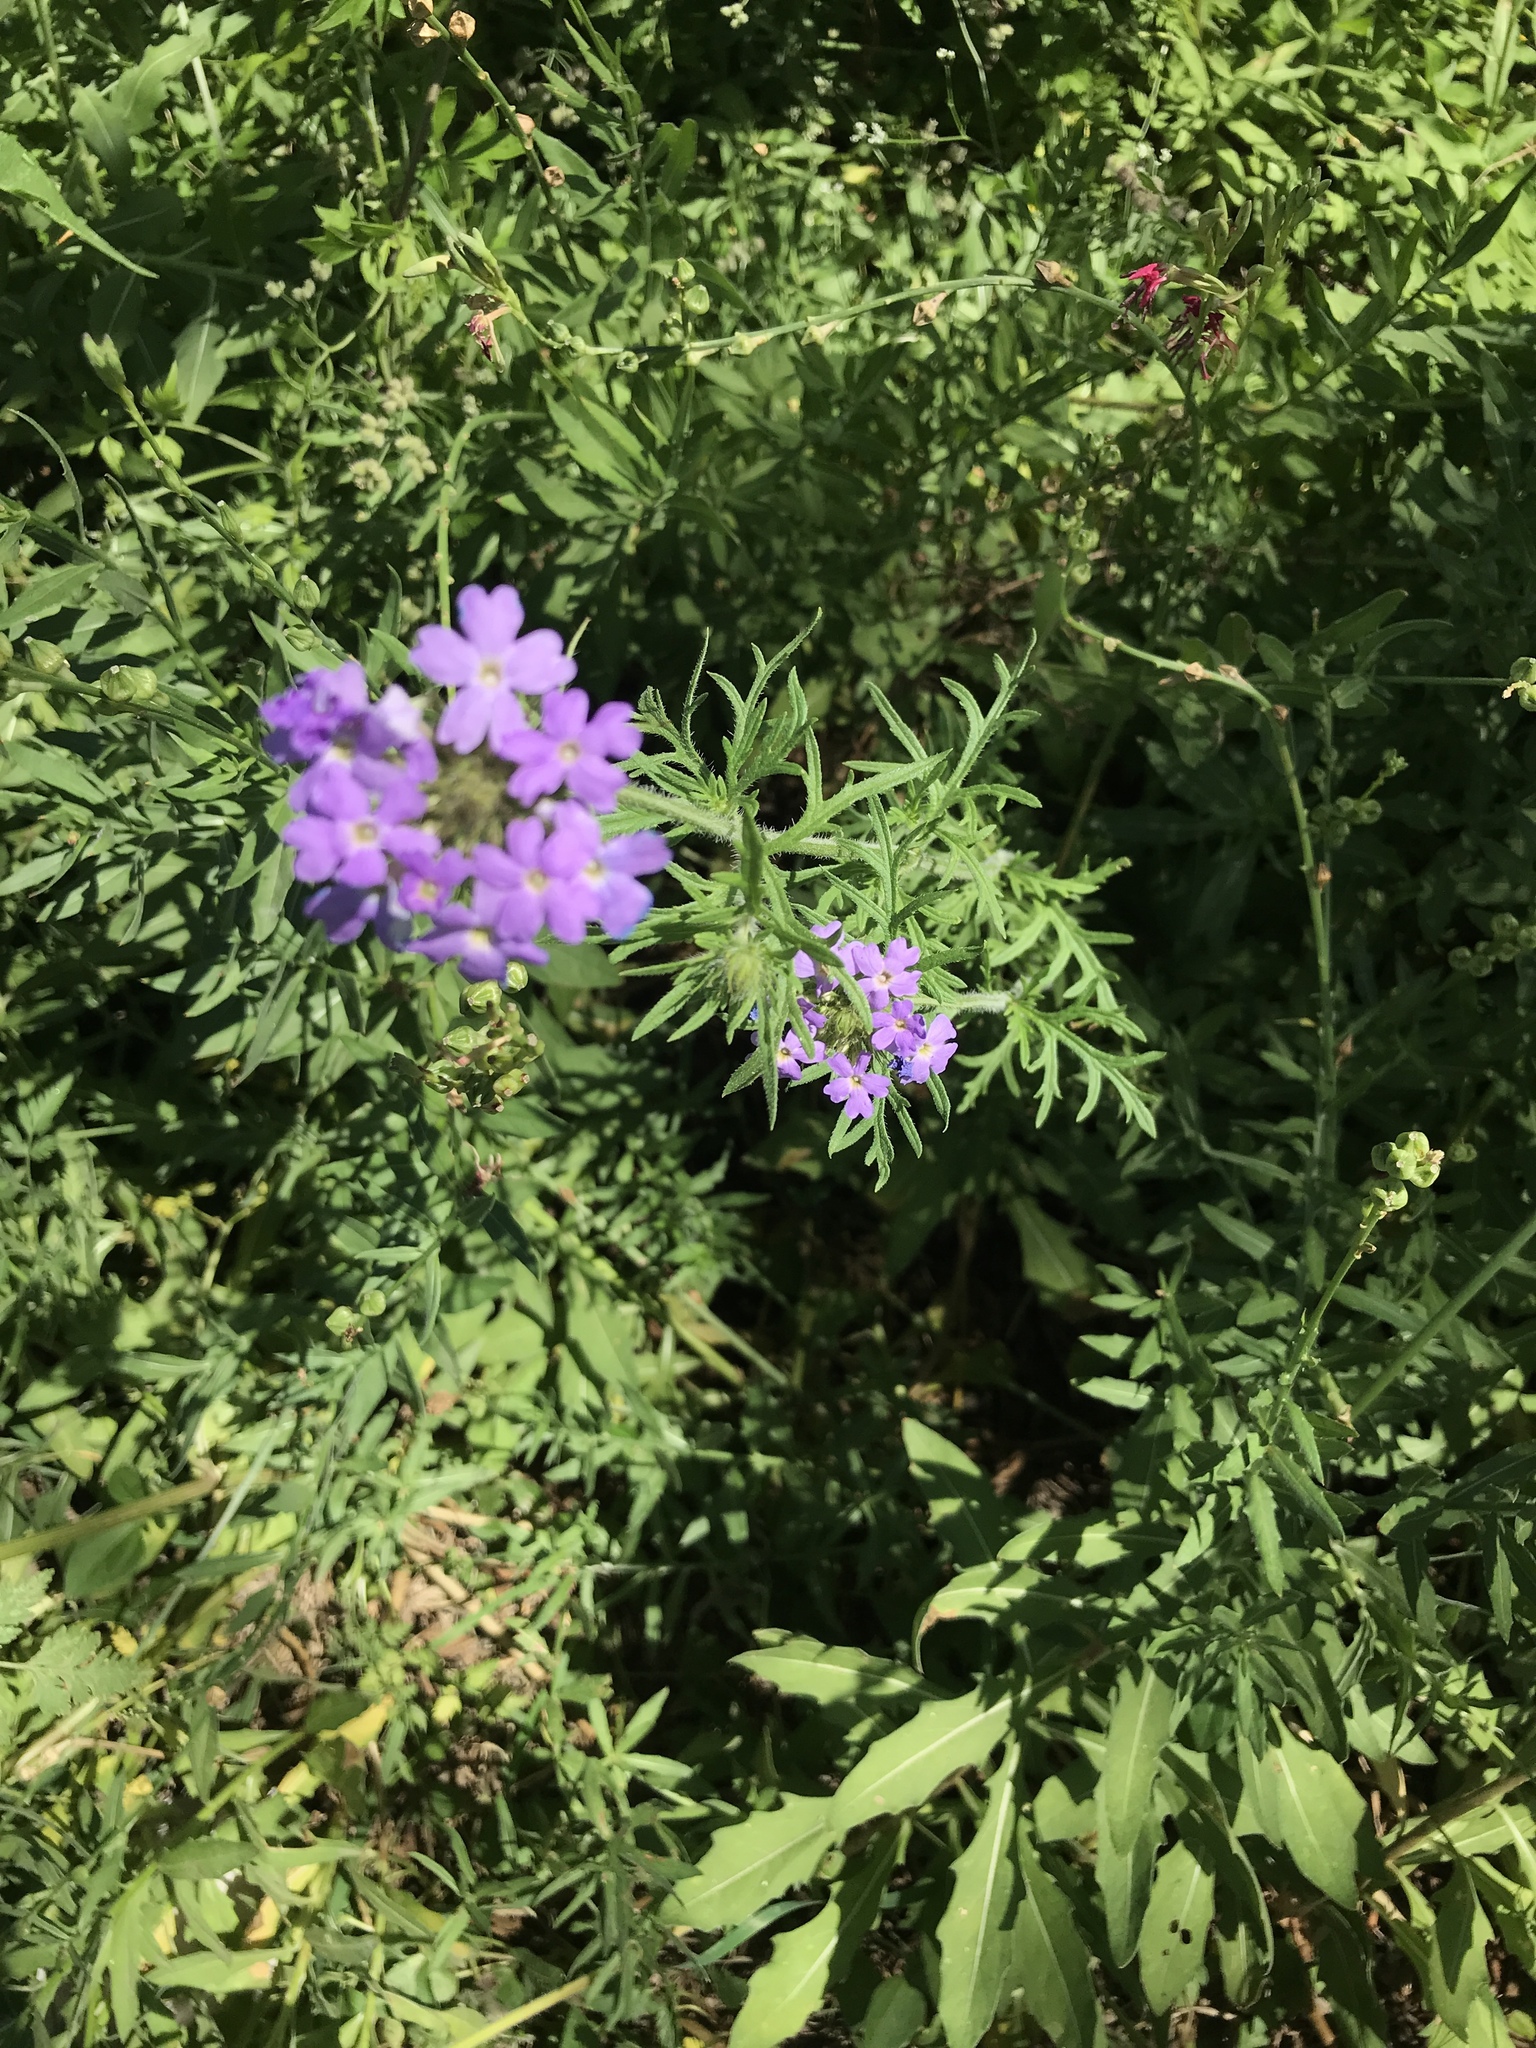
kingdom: Plantae
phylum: Tracheophyta
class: Magnoliopsida
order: Lamiales
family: Verbenaceae
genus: Verbena
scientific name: Verbena bipinnatifida
